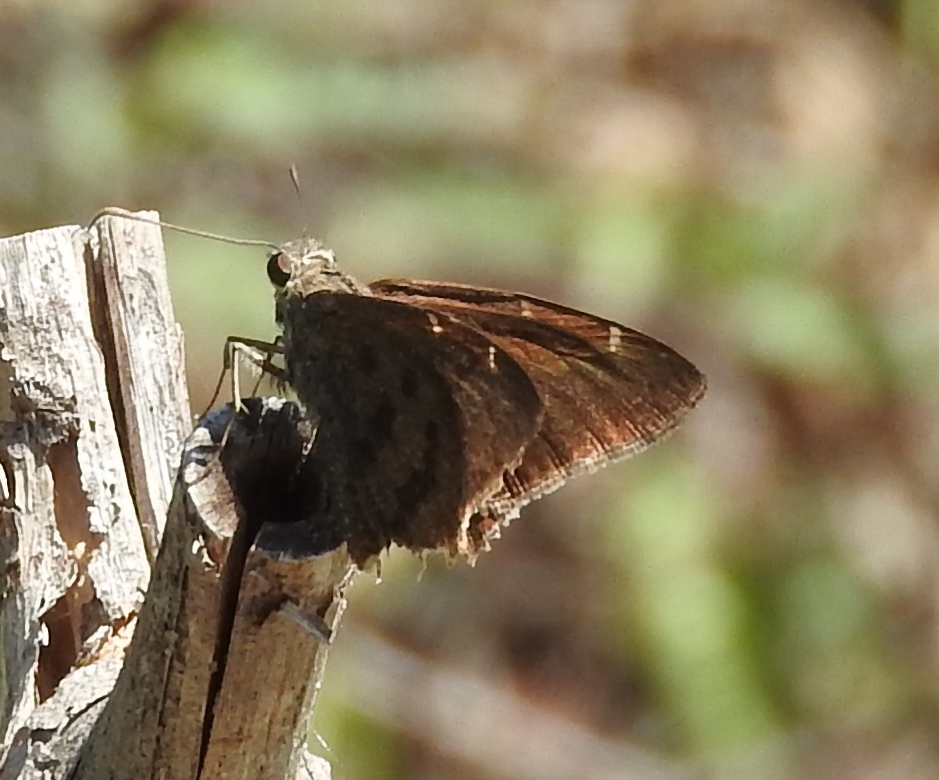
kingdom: Animalia
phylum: Arthropoda
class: Insecta
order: Lepidoptera
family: Hesperiidae
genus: Urbanus
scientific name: Urbanus procne
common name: Brown longtail
